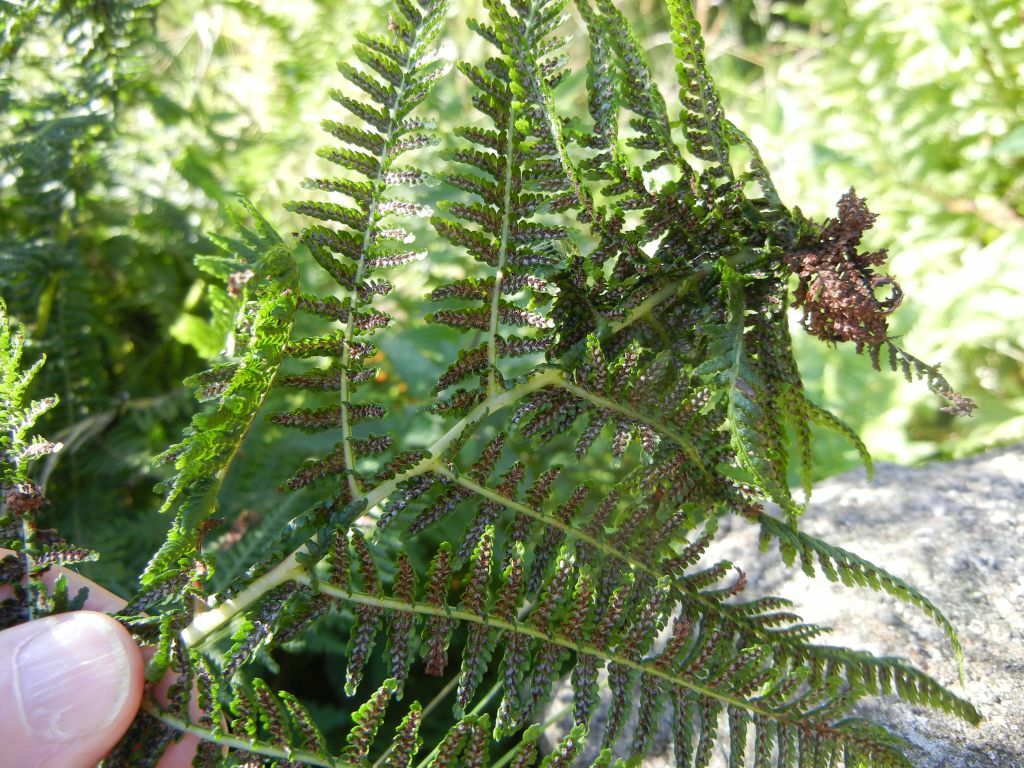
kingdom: Plantae
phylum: Tracheophyta
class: Polypodiopsida
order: Polypodiales
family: Athyriaceae
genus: Athyrium
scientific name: Athyrium filix-femina
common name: Lady fern
